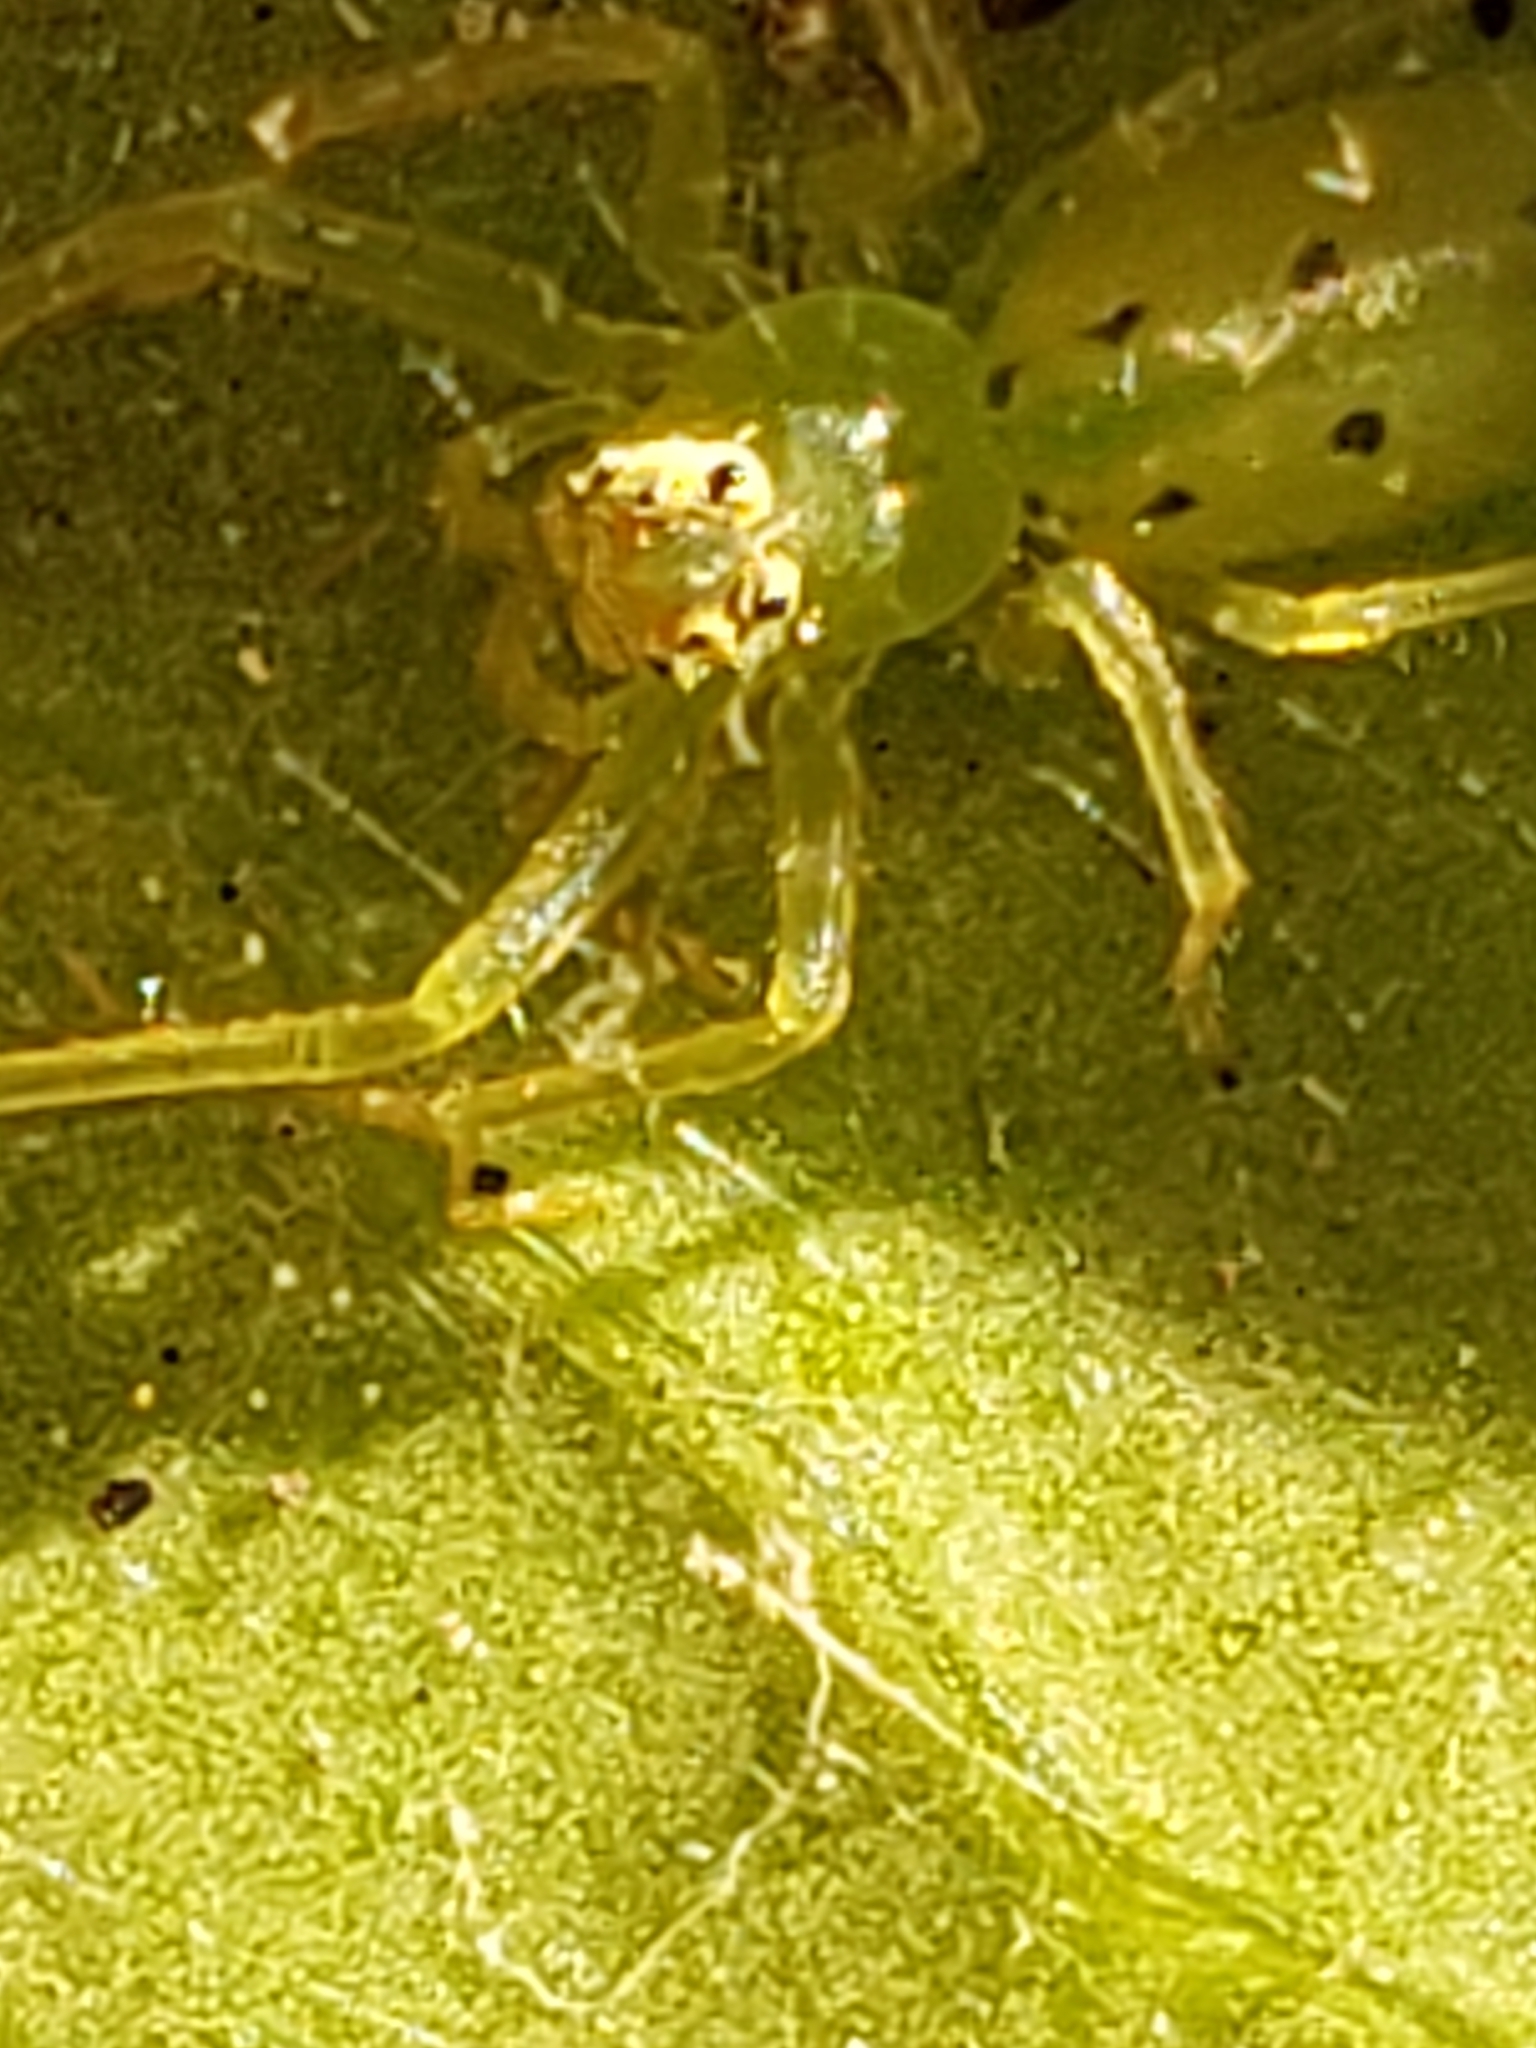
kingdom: Animalia
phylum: Arthropoda
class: Arachnida
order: Araneae
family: Salticidae
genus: Lyssomanes
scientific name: Lyssomanes viridis
